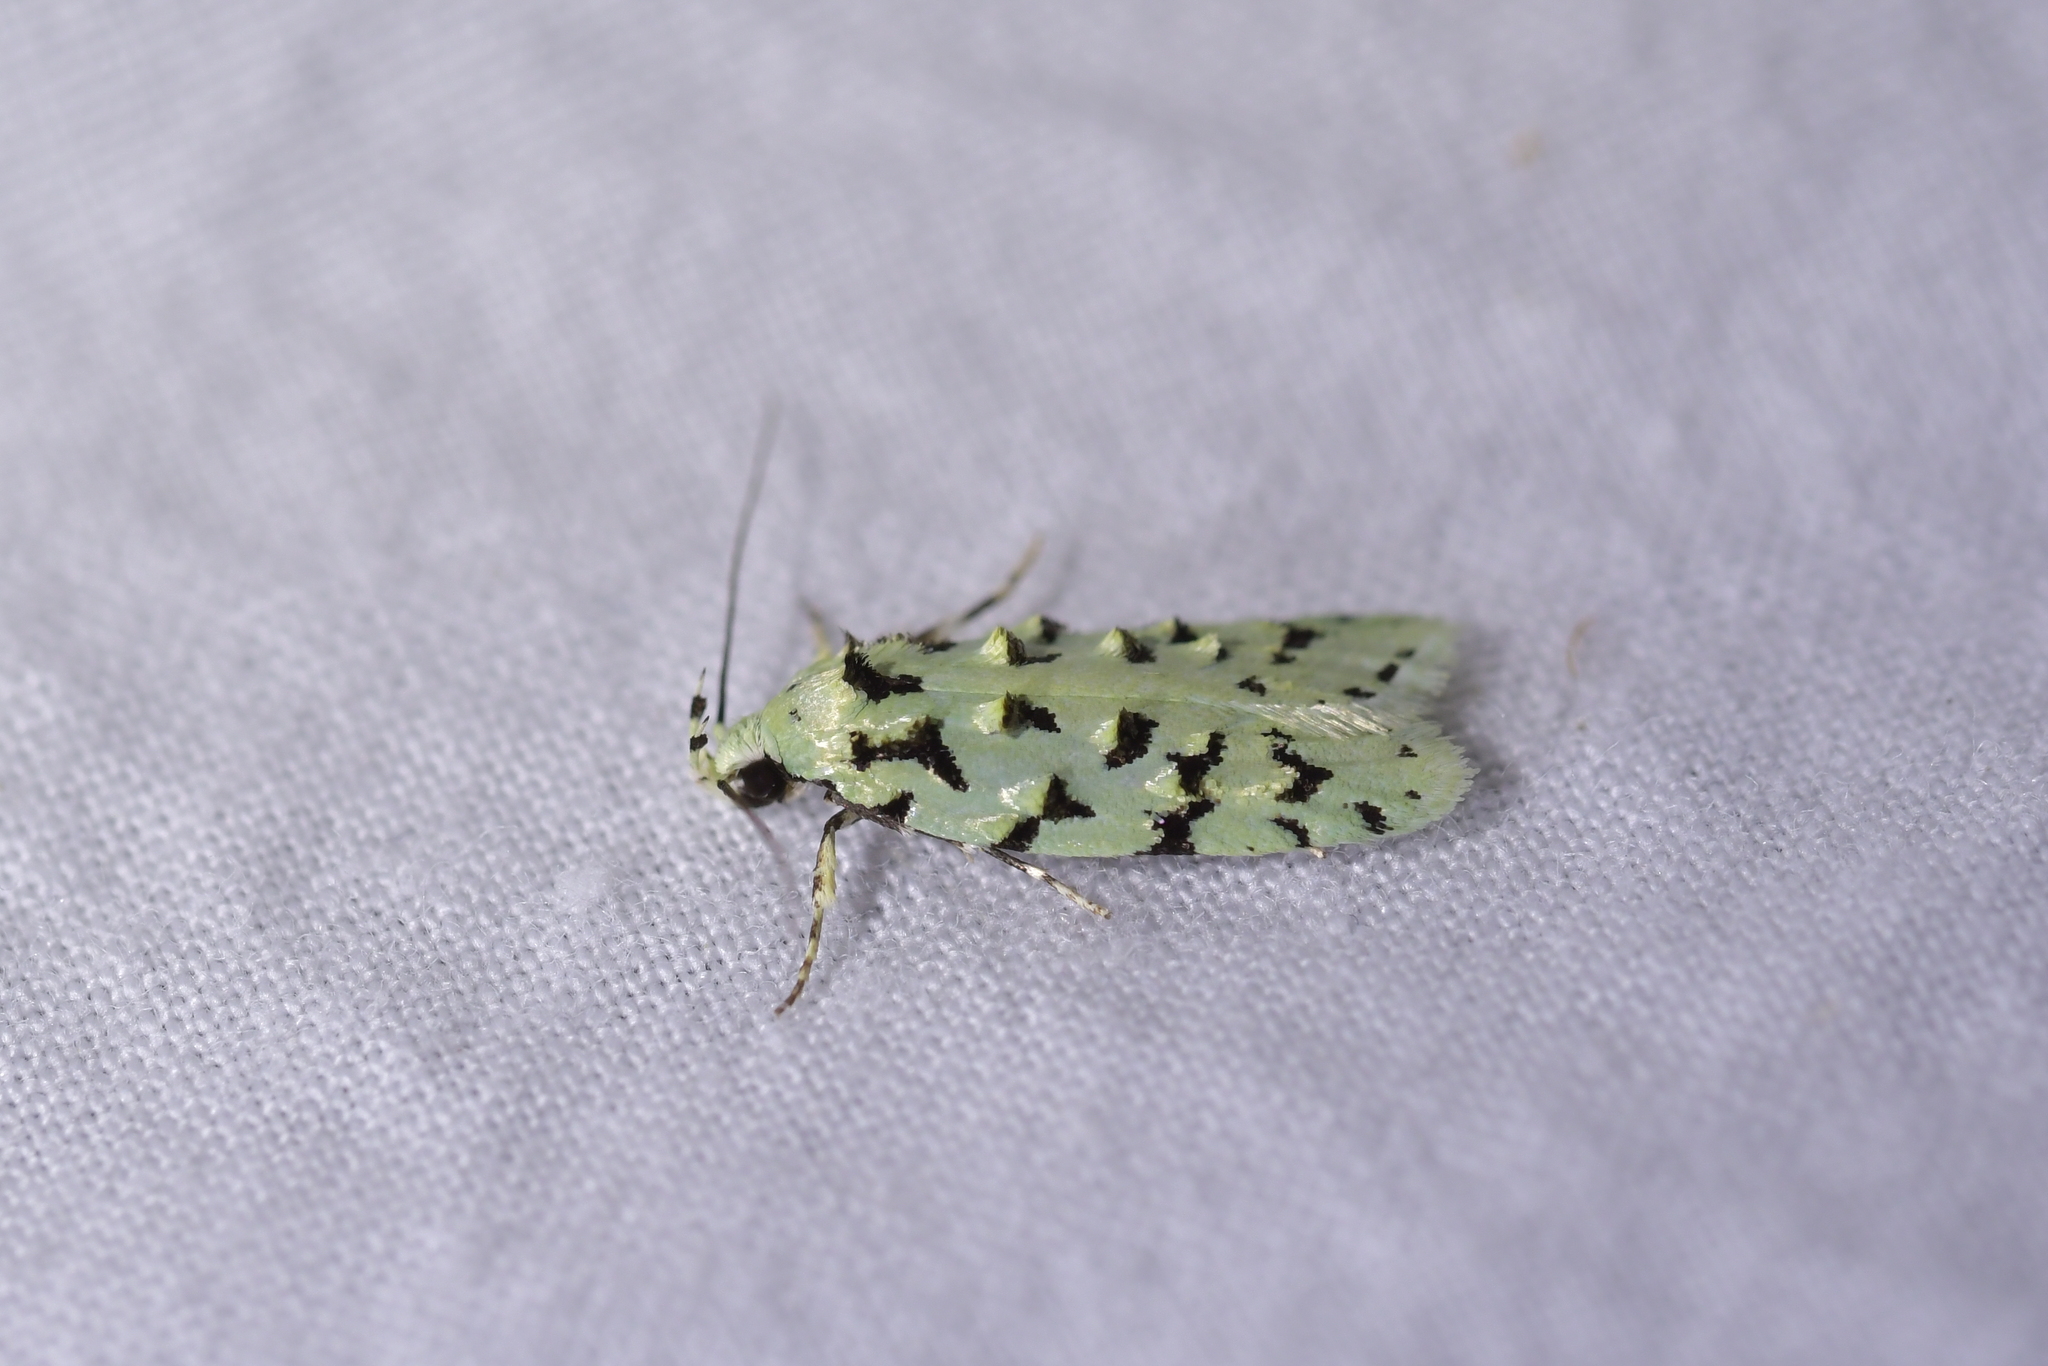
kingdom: Animalia
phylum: Arthropoda
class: Insecta
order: Lepidoptera
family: Oecophoridae
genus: Izatha
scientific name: Izatha peroneanella
